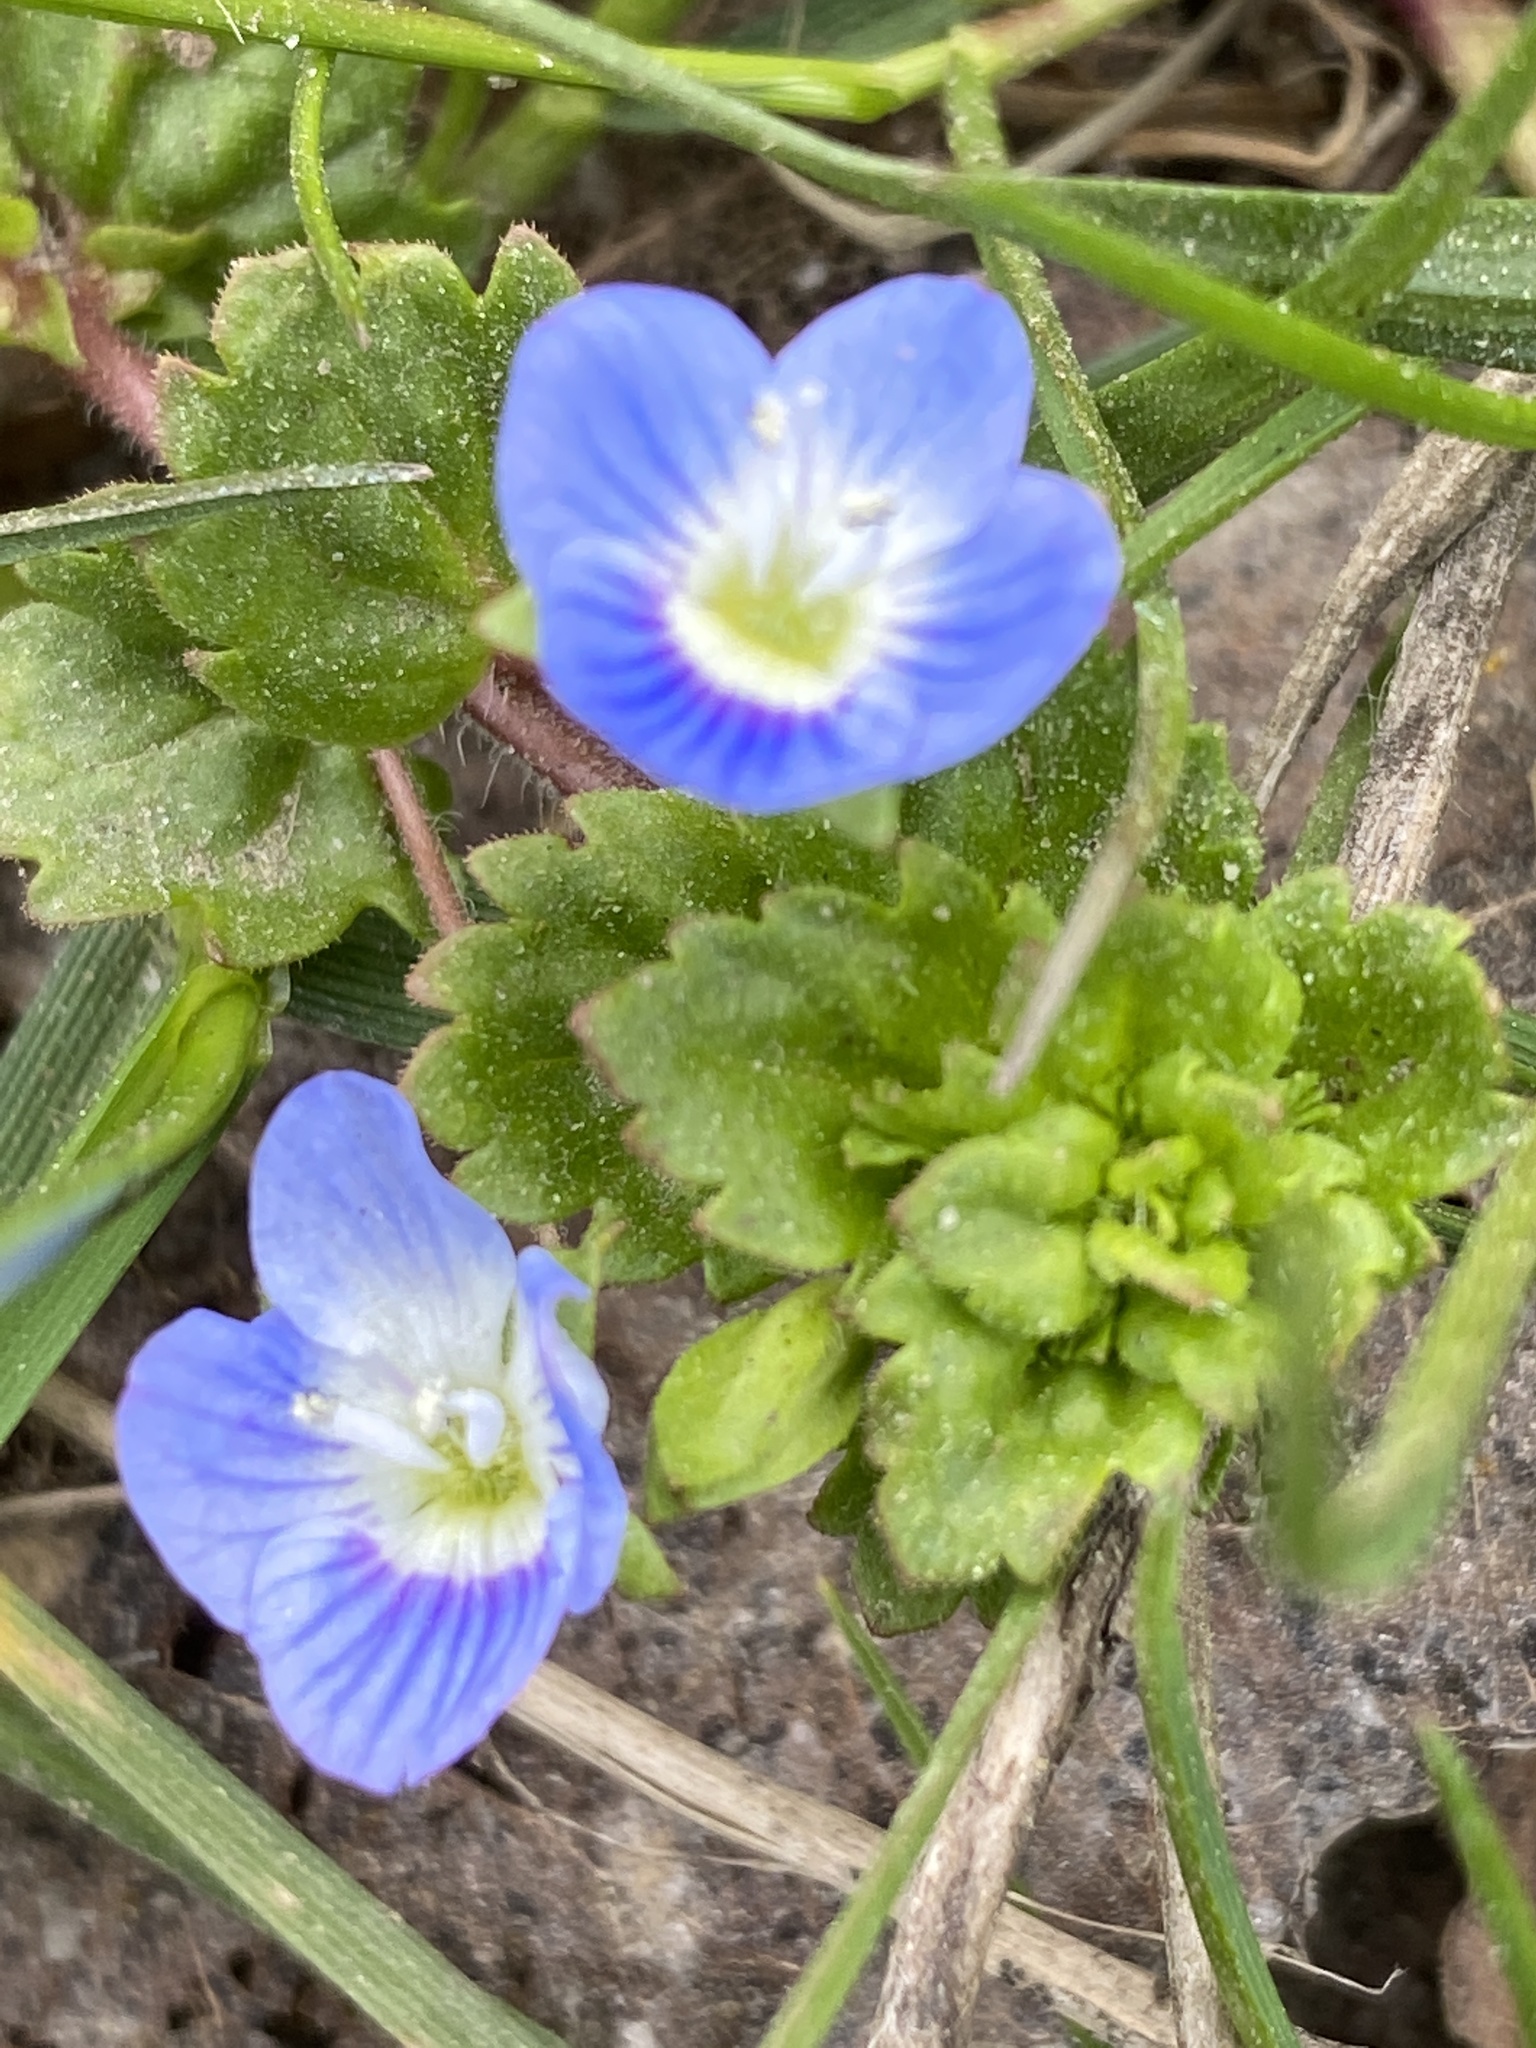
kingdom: Plantae
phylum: Tracheophyta
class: Magnoliopsida
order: Lamiales
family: Plantaginaceae
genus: Veronica
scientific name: Veronica persica
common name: Common field-speedwell
